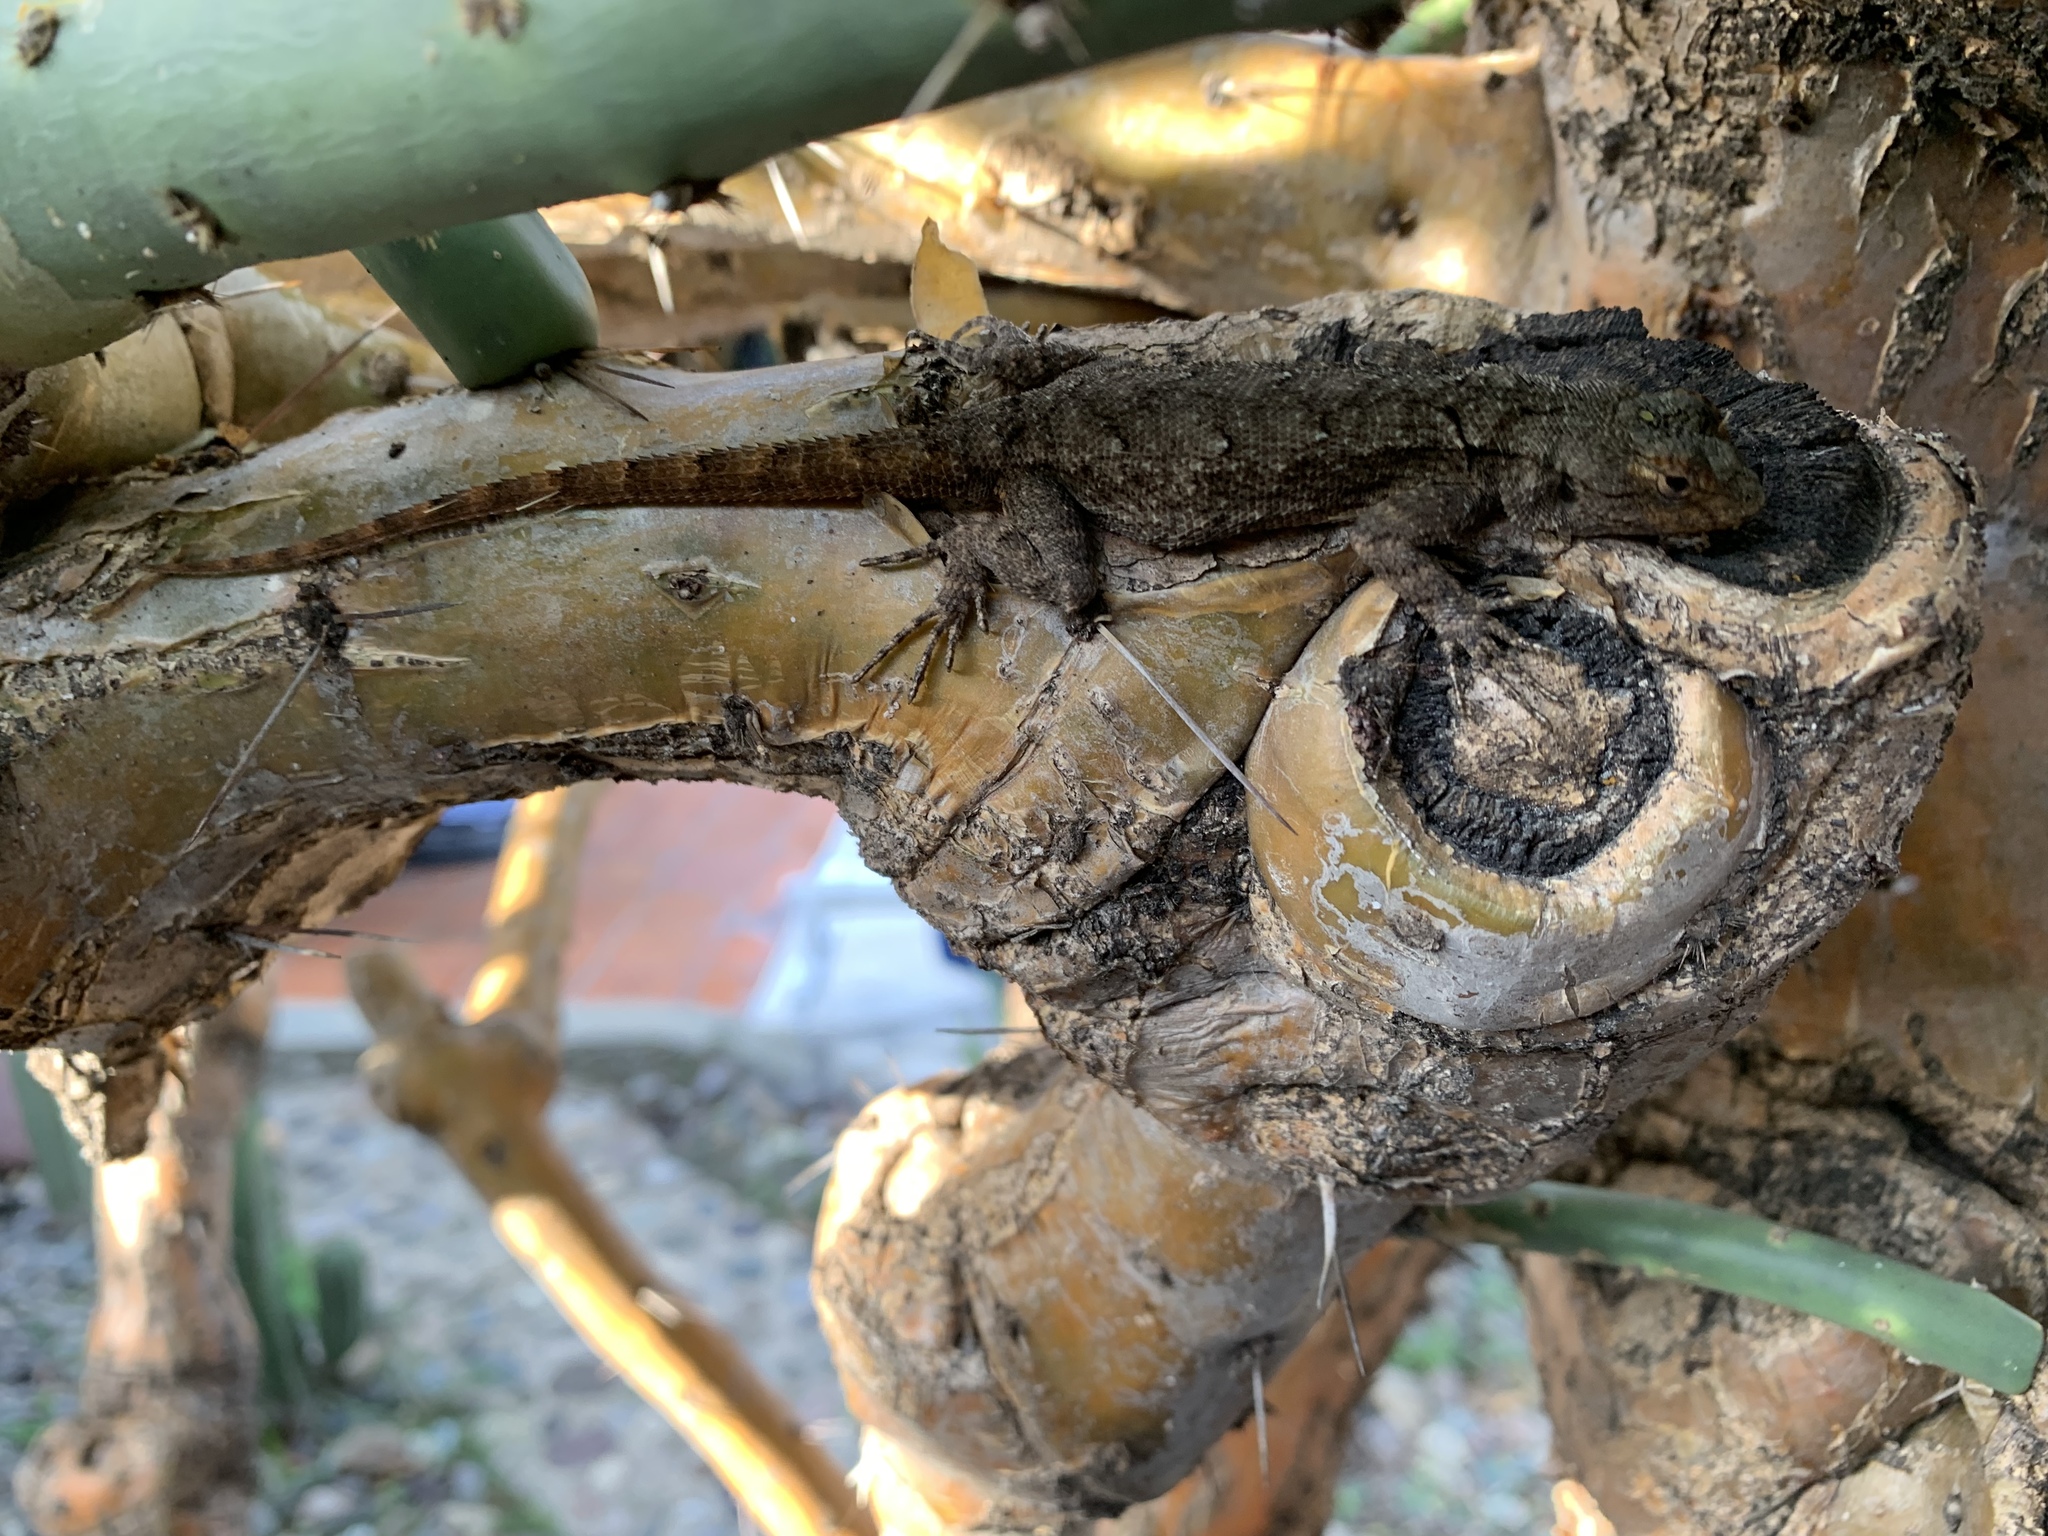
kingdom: Animalia
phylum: Chordata
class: Squamata
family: Phrynosomatidae
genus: Sceloporus
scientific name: Sceloporus grammicus
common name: Mesquite lizard
